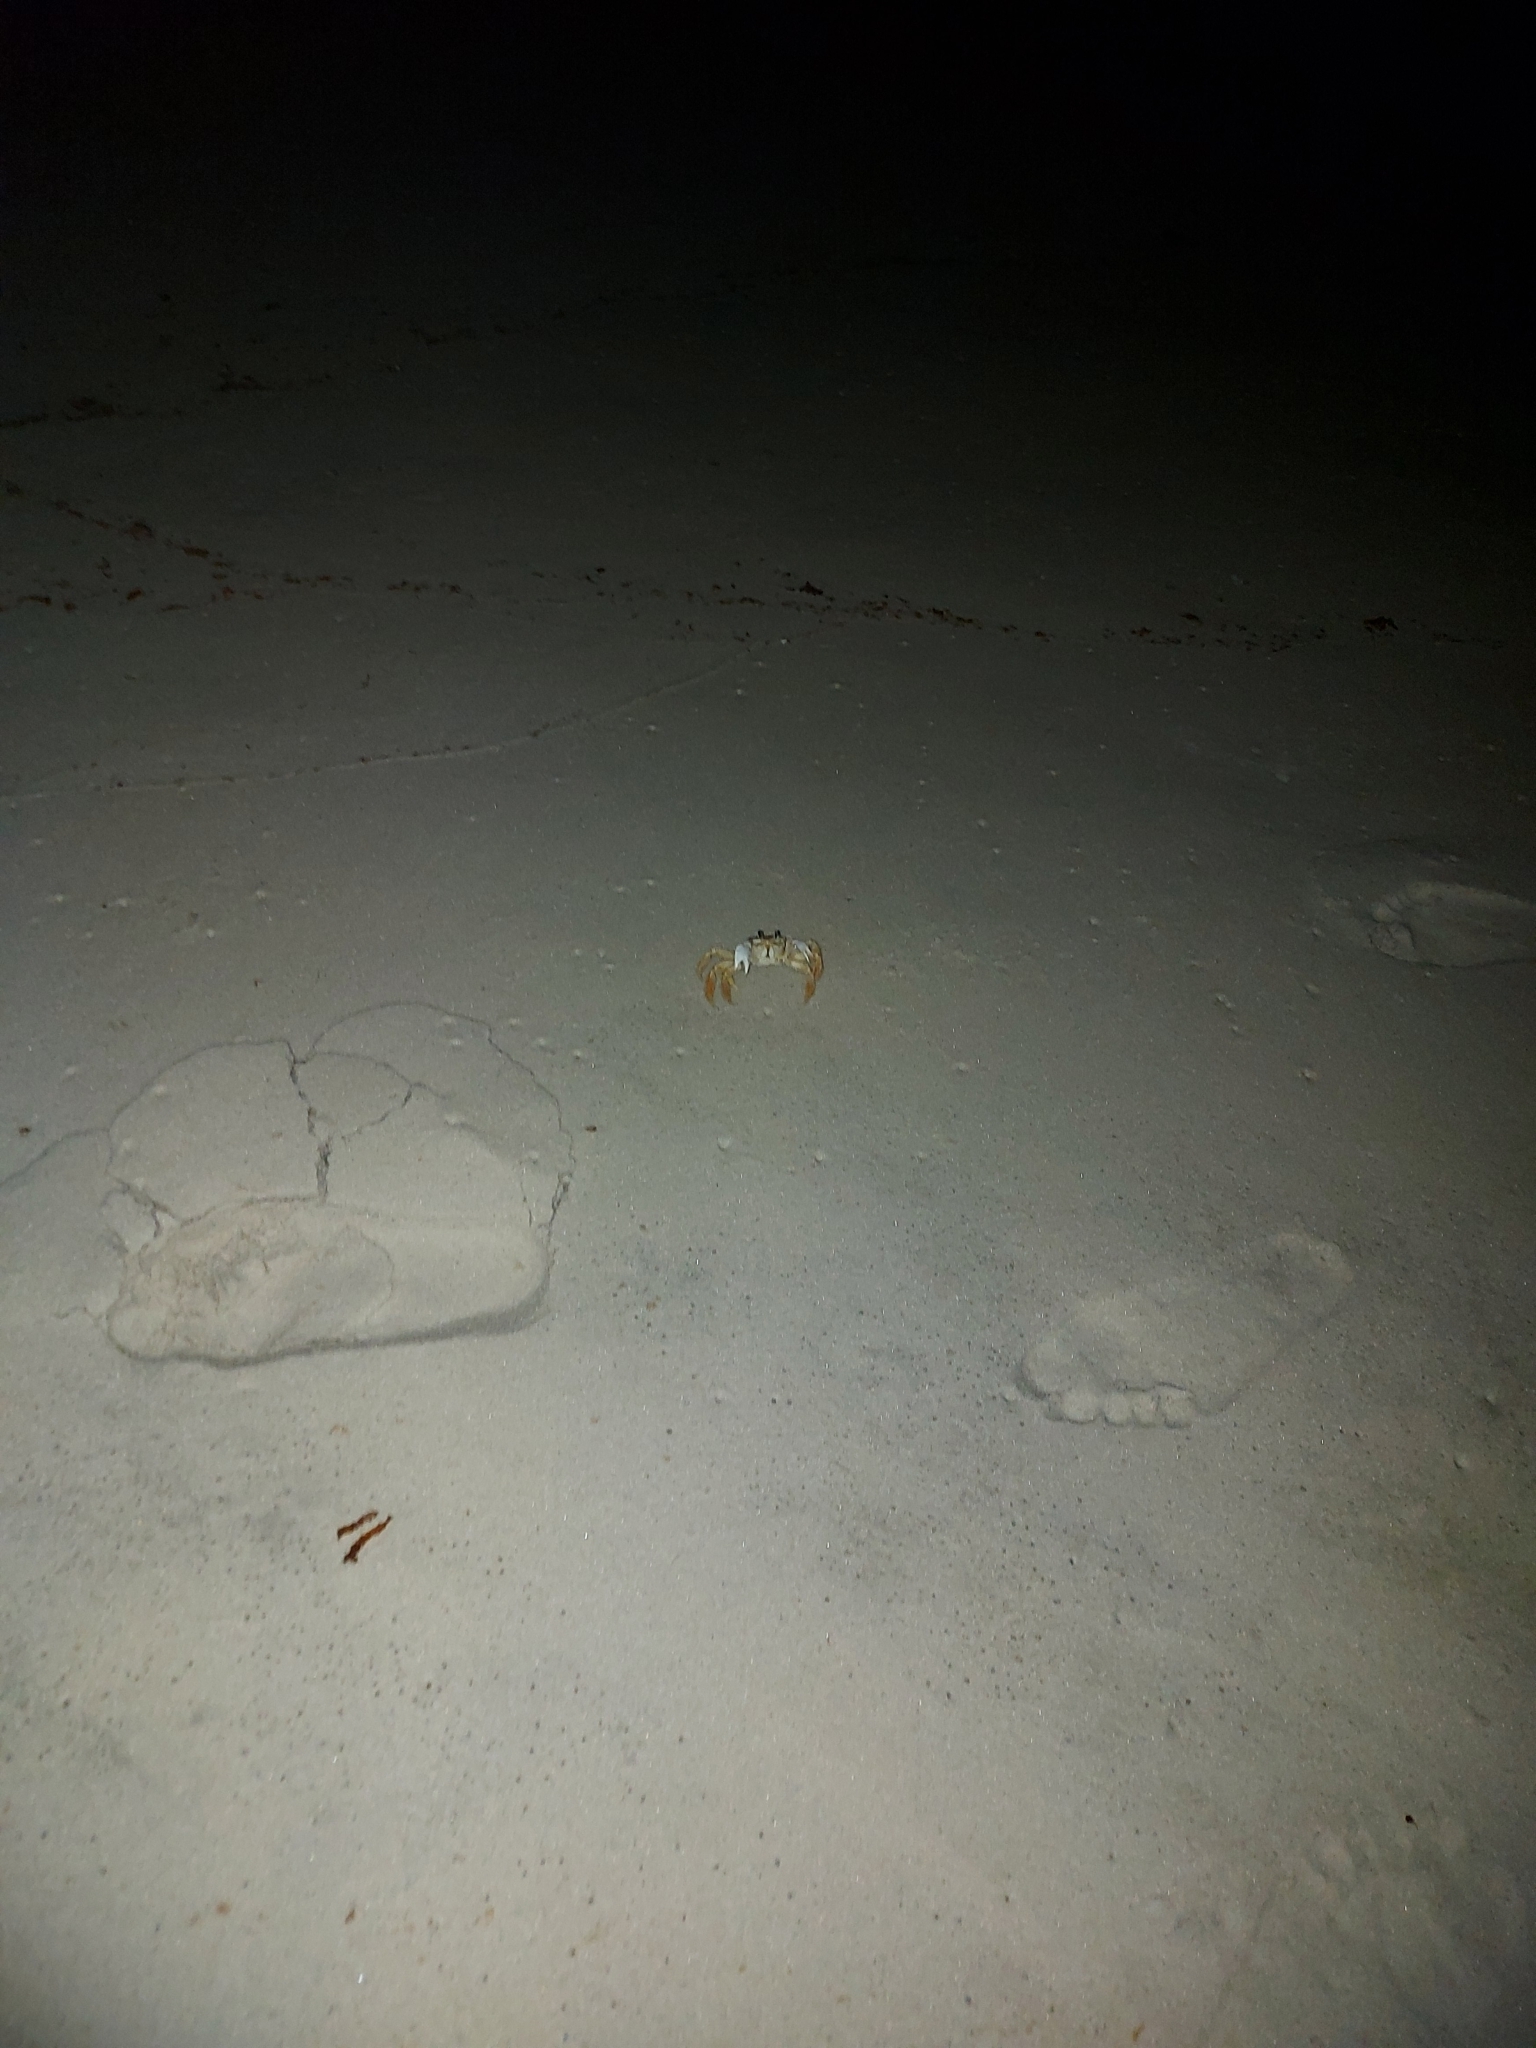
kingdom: Animalia
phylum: Arthropoda
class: Malacostraca
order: Decapoda
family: Ocypodidae
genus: Ocypode
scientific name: Ocypode quadrata
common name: Ghost crab
